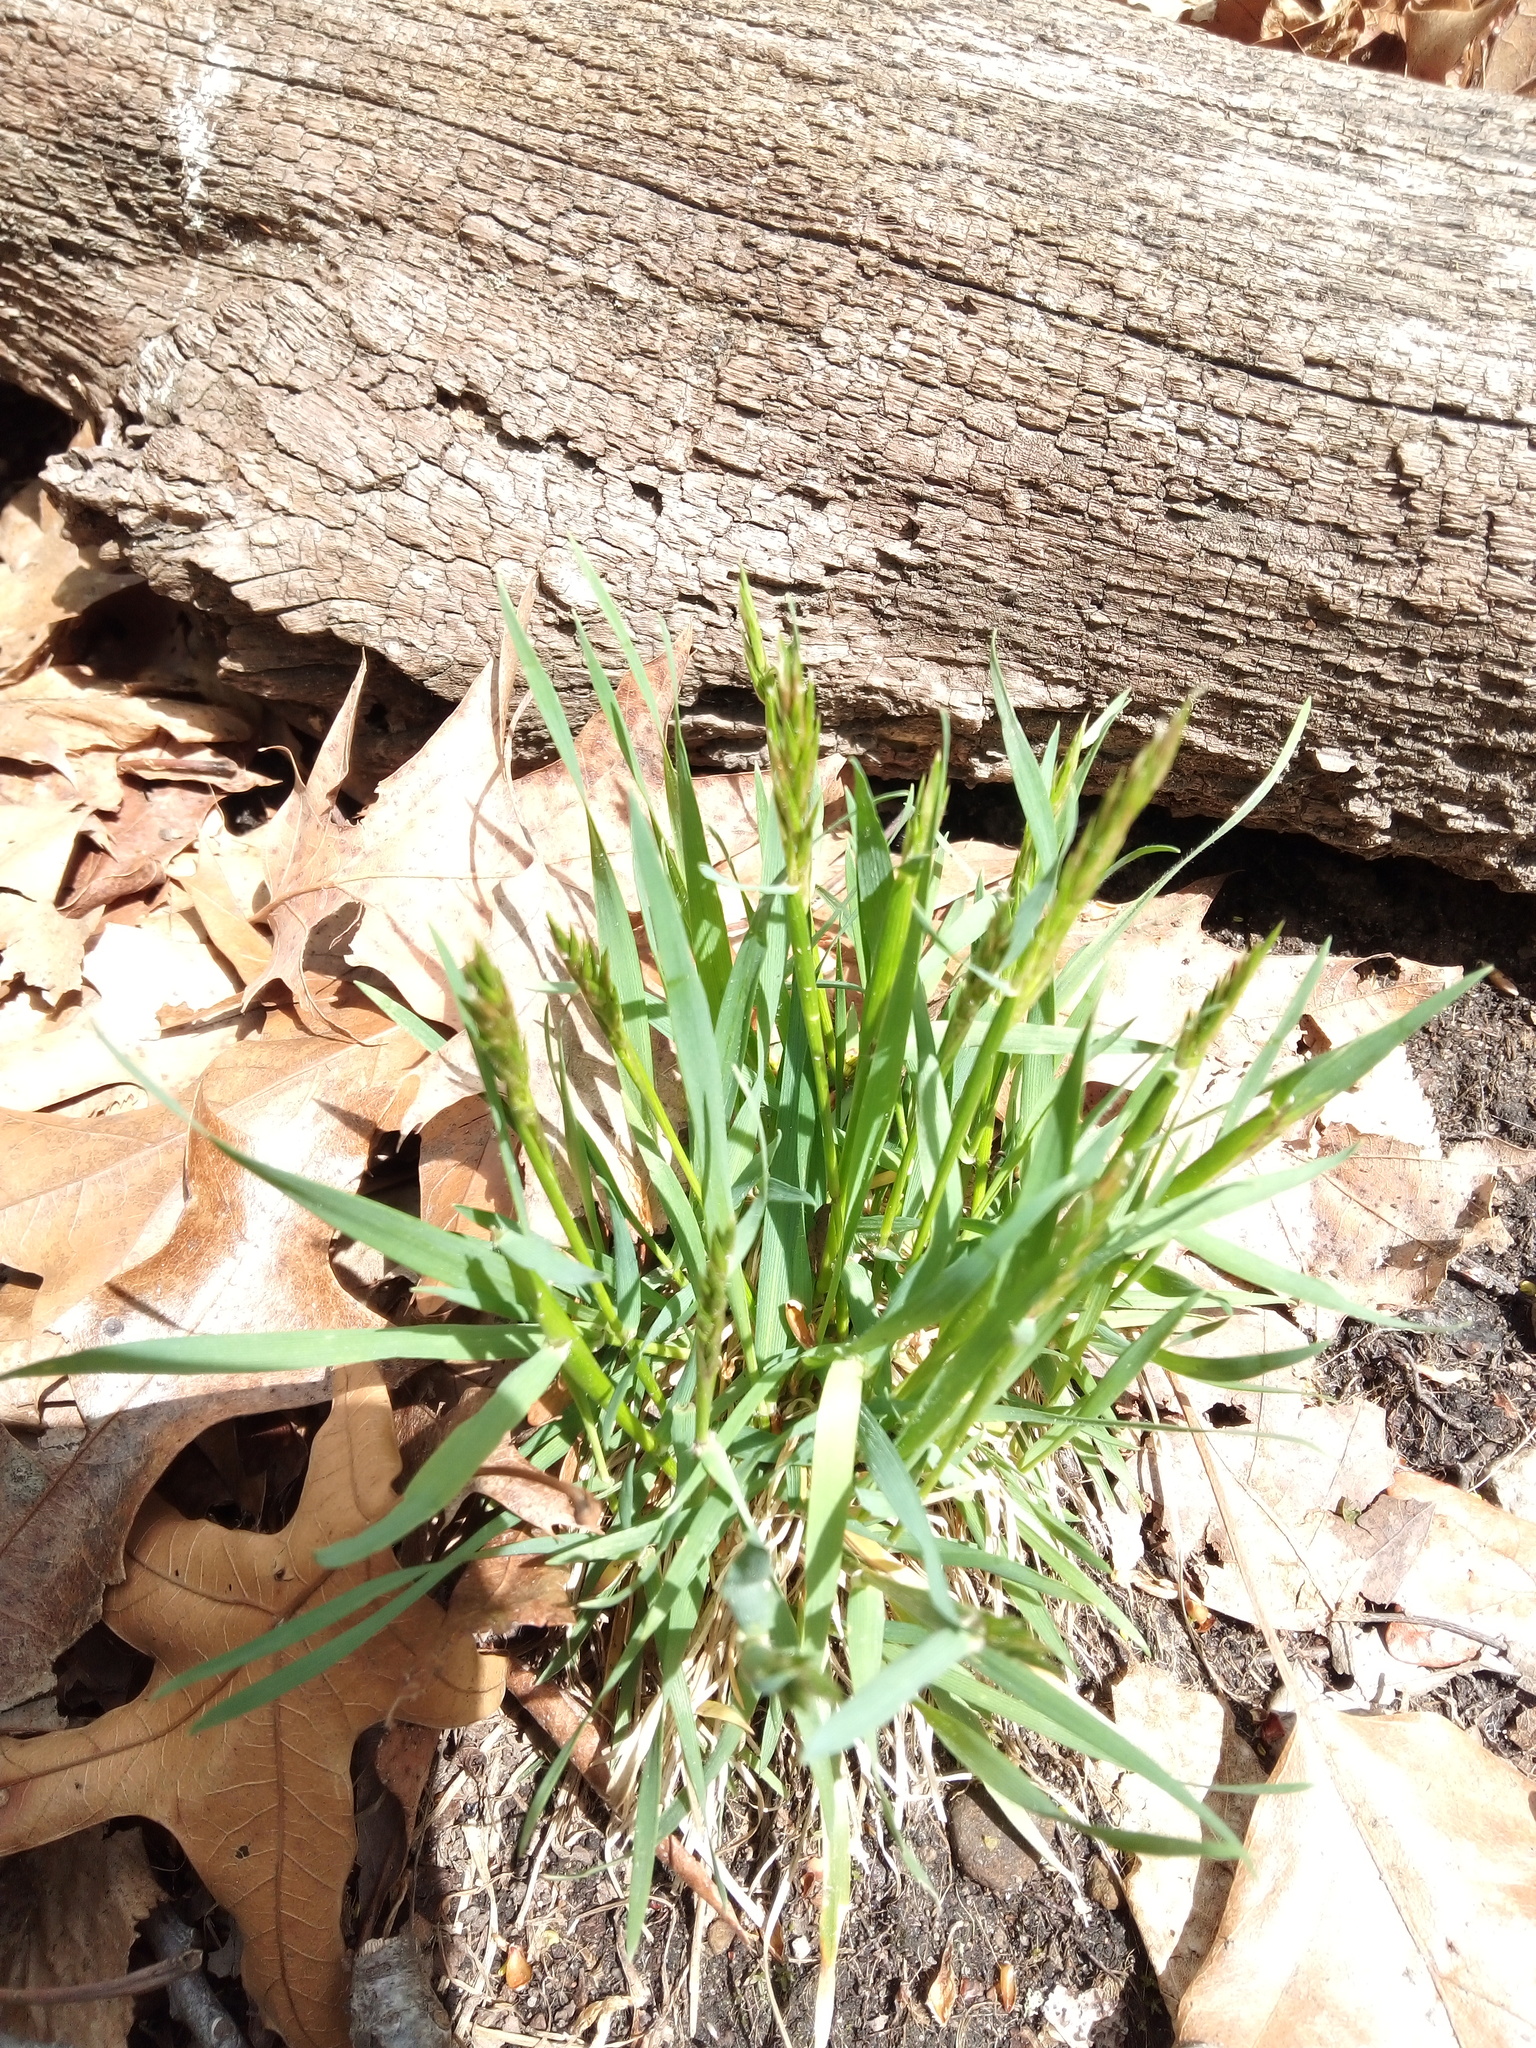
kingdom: Plantae
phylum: Tracheophyta
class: Liliopsida
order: Poales
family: Poaceae
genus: Anthoxanthum
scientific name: Anthoxanthum odoratum
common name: Sweet vernalgrass
